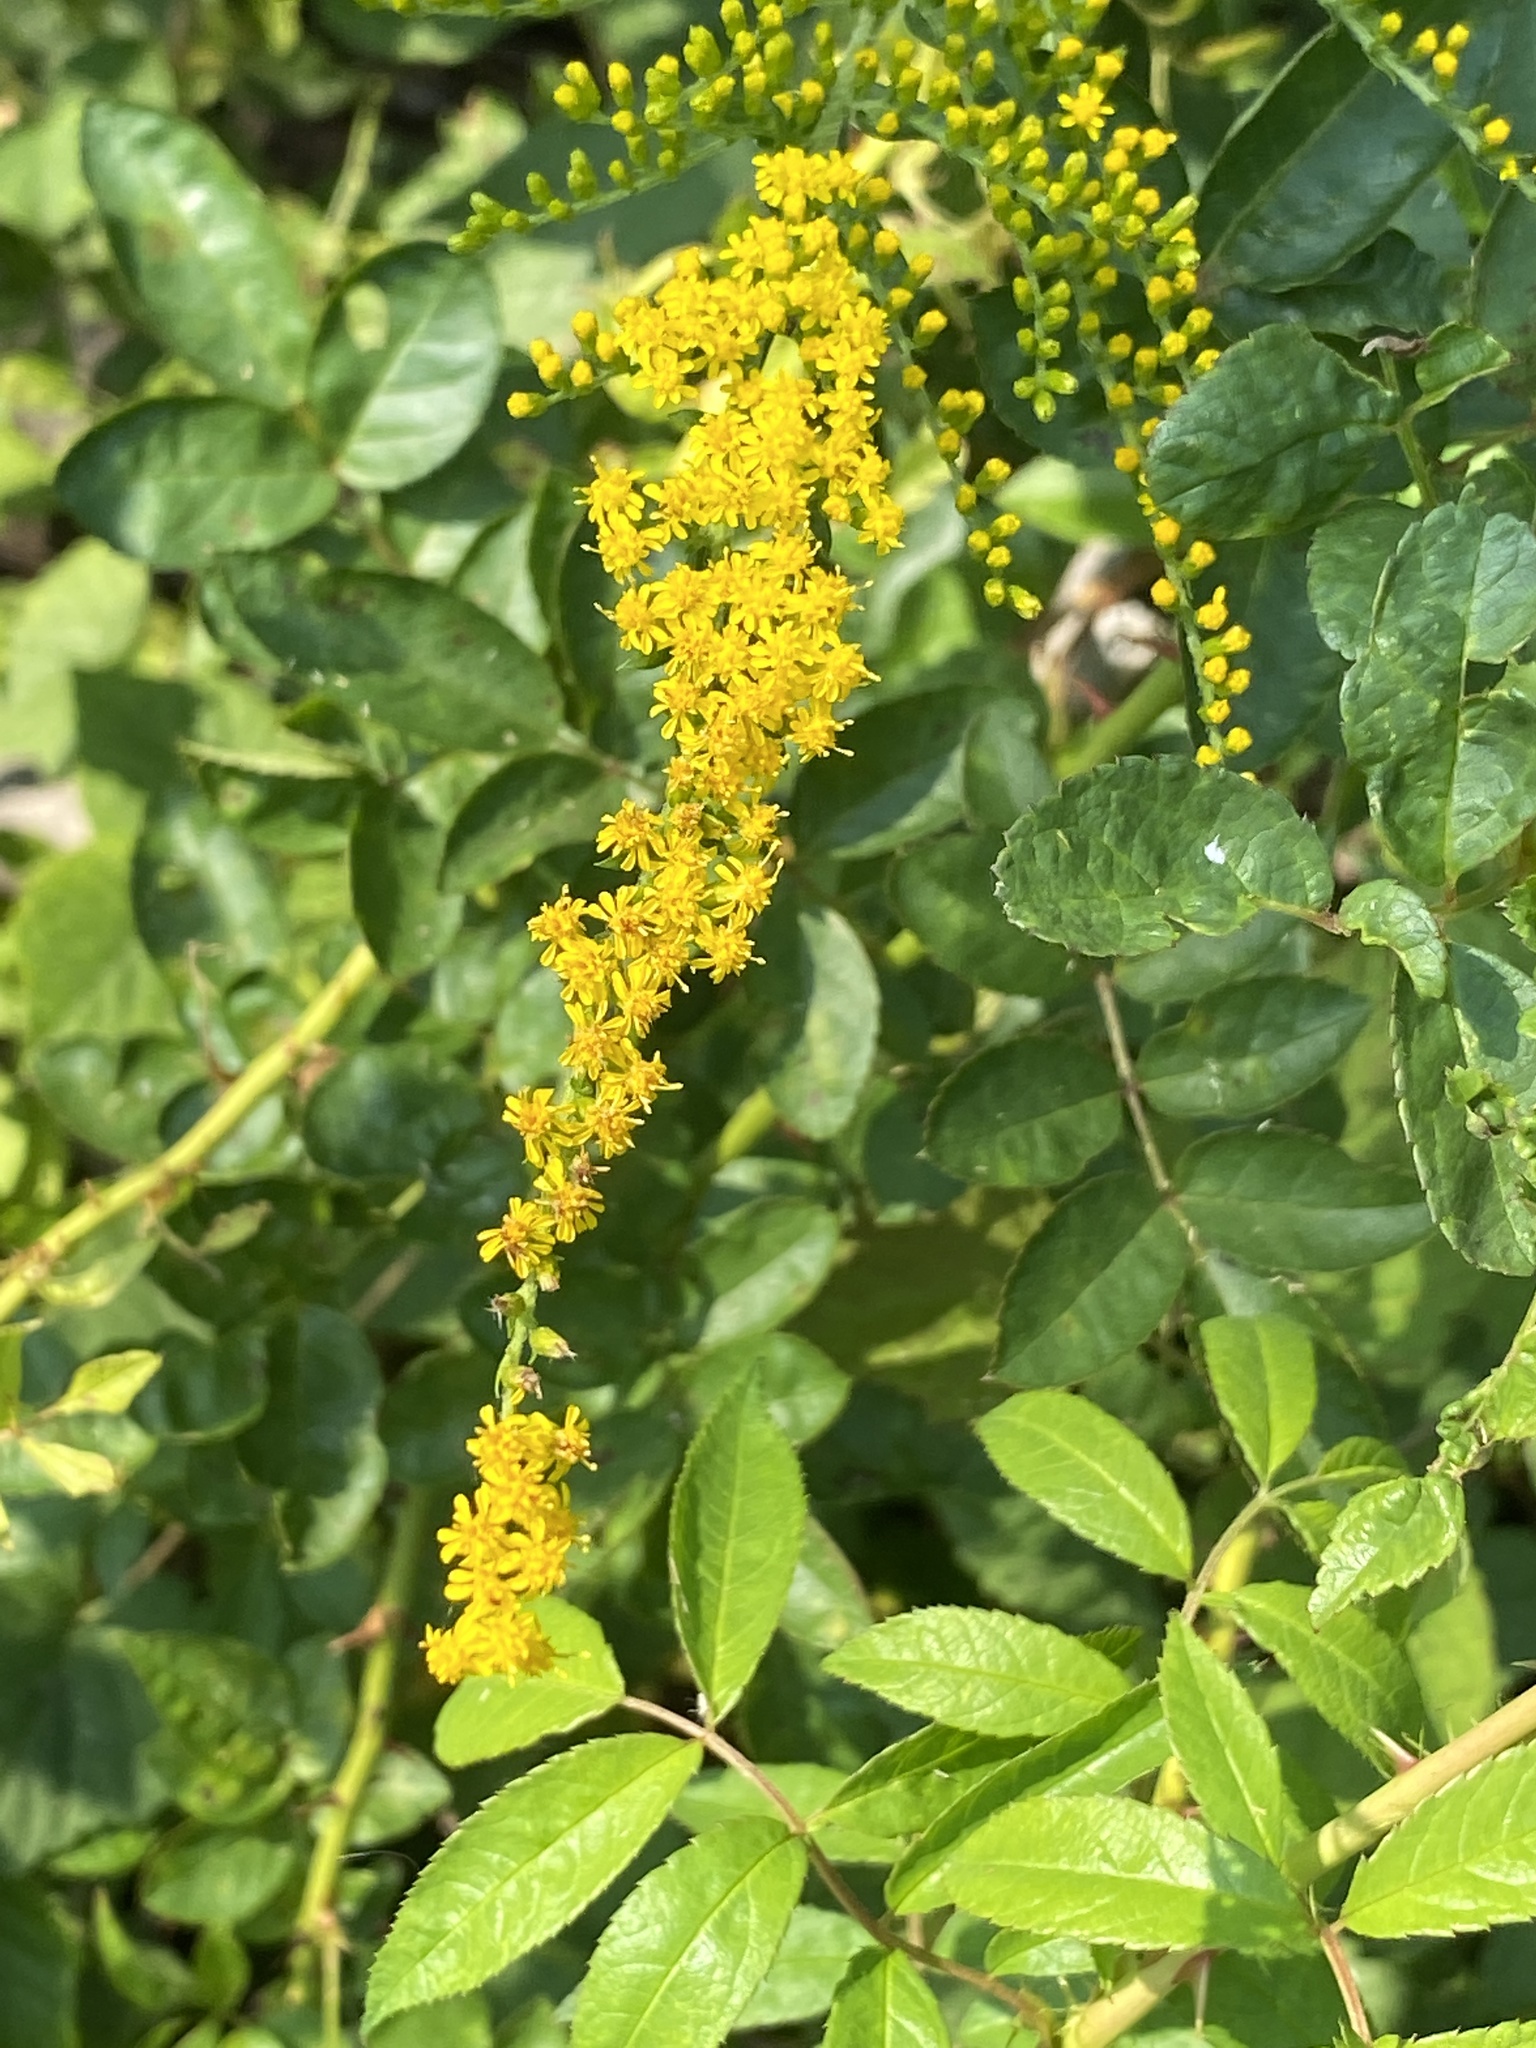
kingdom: Plantae
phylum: Tracheophyta
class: Magnoliopsida
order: Asterales
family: Asteraceae
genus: Solidago
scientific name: Solidago rugosa
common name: Rough-stemmed goldenrod
